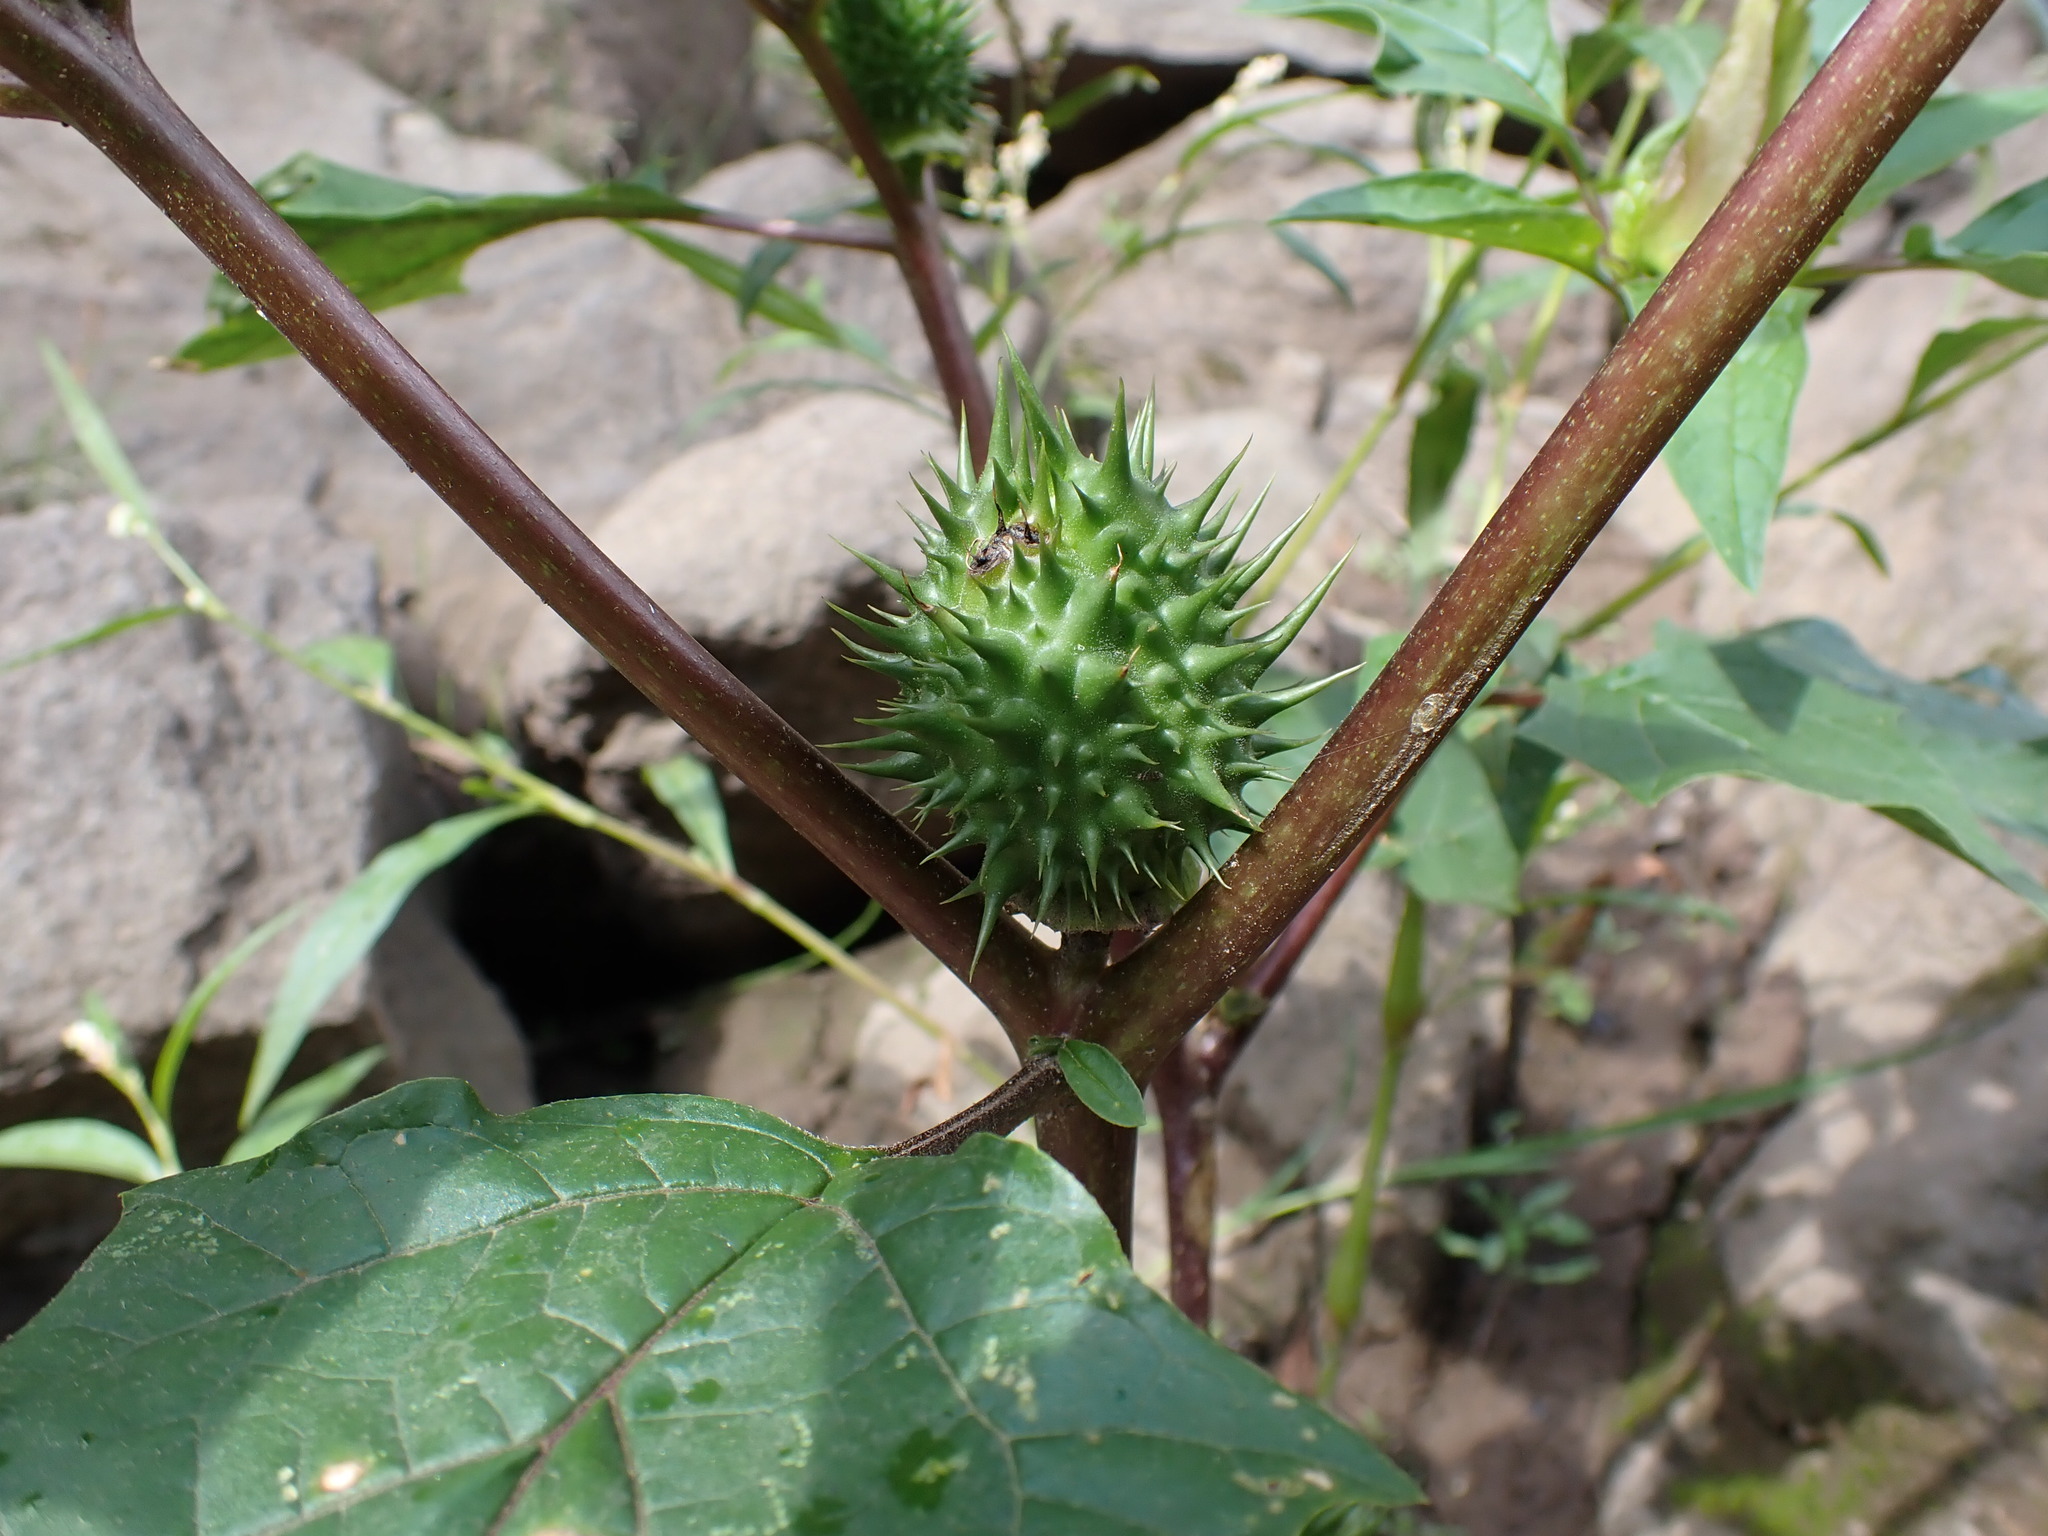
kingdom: Plantae
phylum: Tracheophyta
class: Magnoliopsida
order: Solanales
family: Solanaceae
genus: Datura
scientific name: Datura stramonium
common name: Thorn-apple
